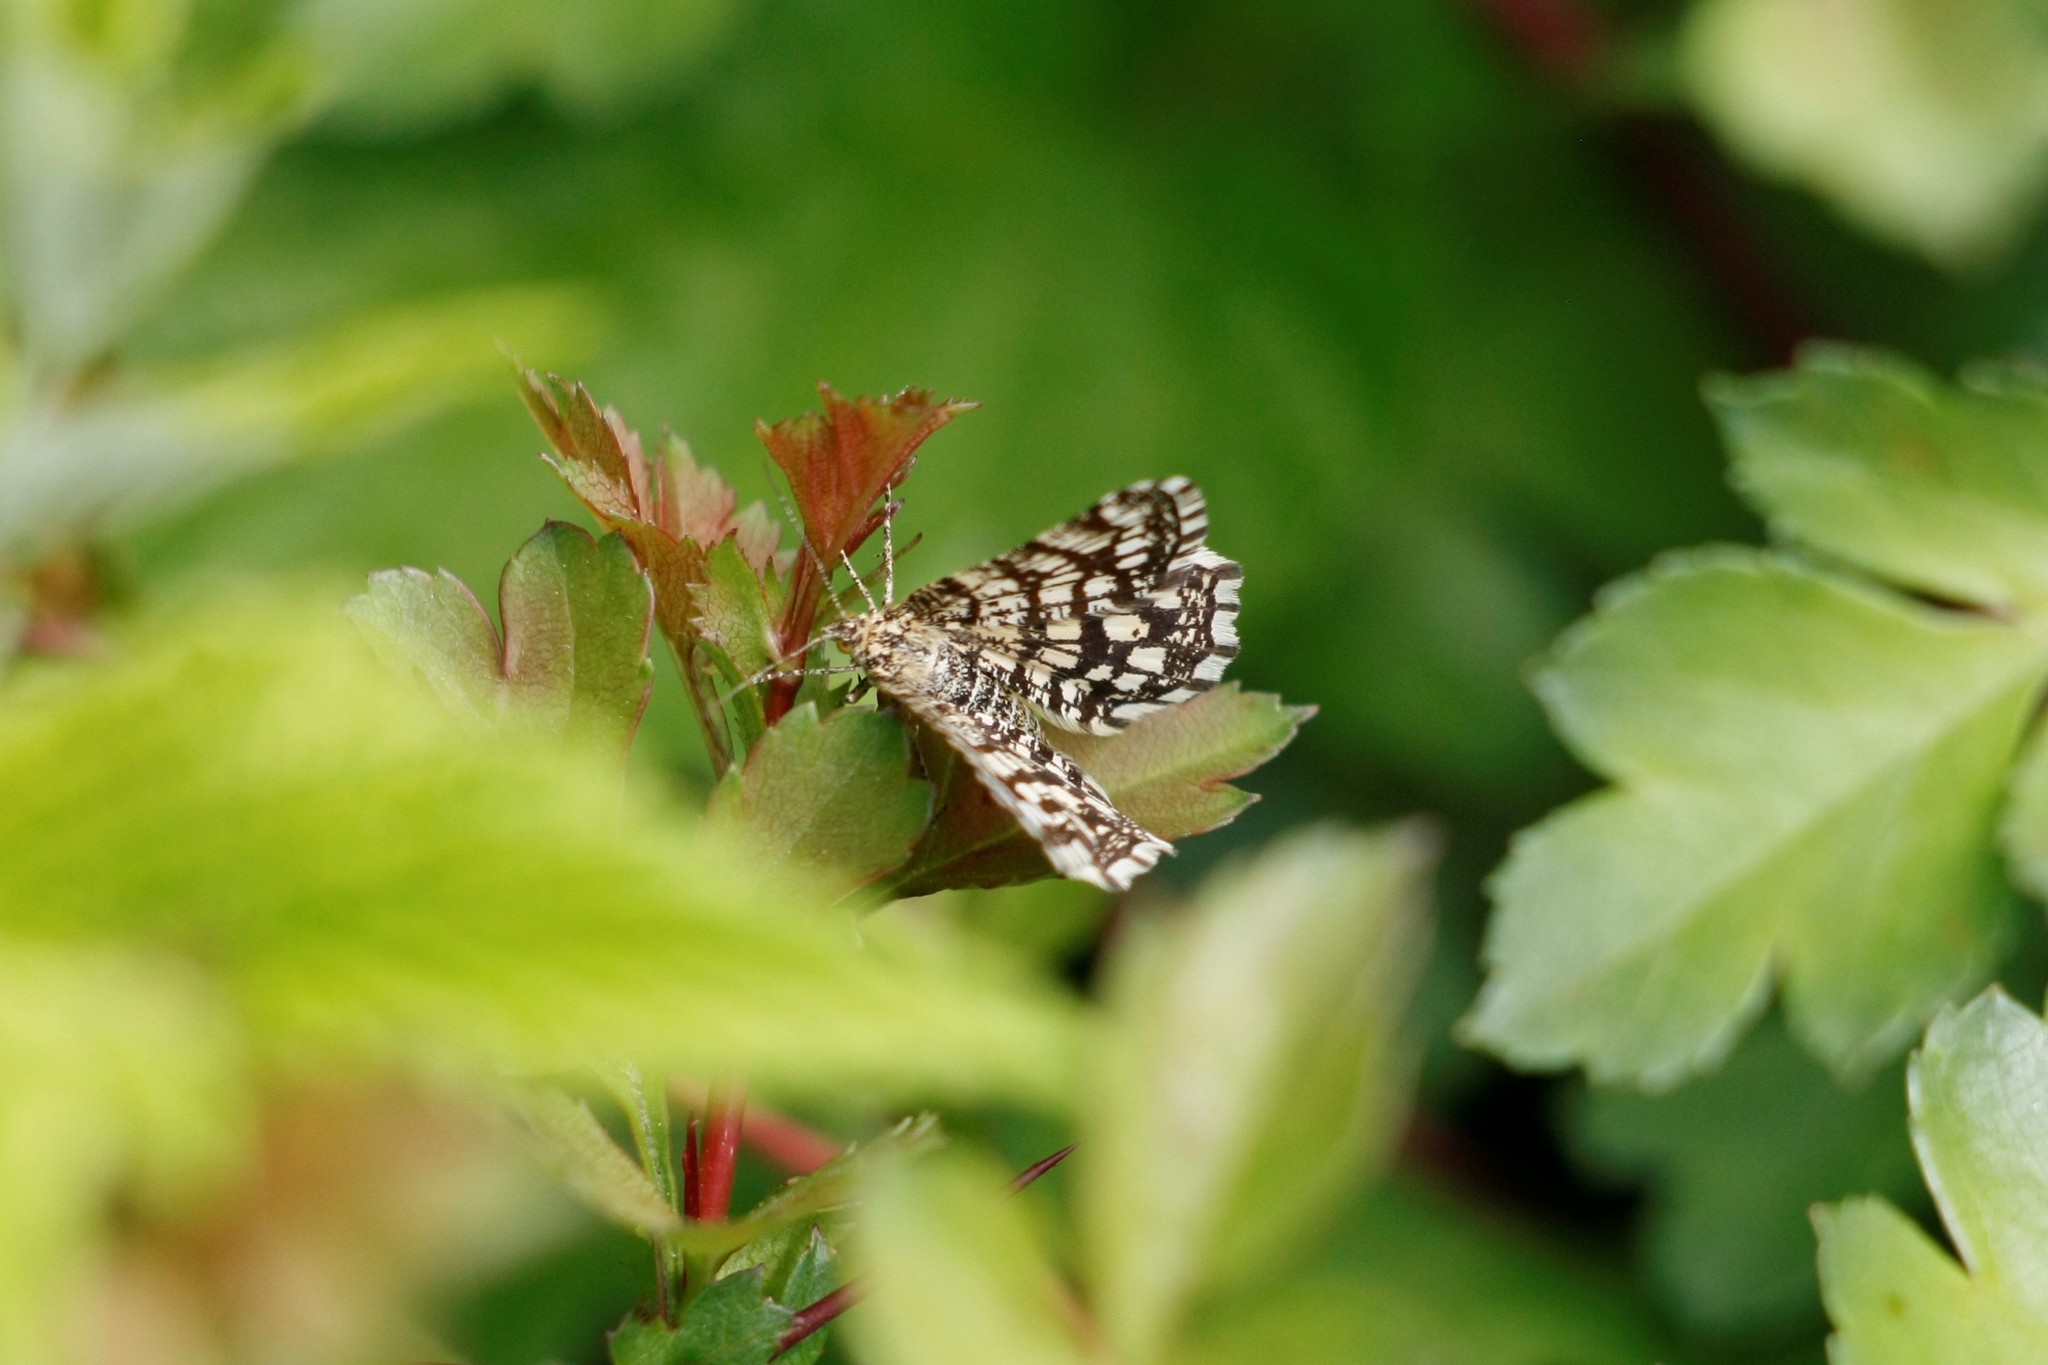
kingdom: Animalia
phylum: Arthropoda
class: Insecta
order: Lepidoptera
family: Geometridae
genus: Chiasmia
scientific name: Chiasmia clathrata
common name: Latticed heath
